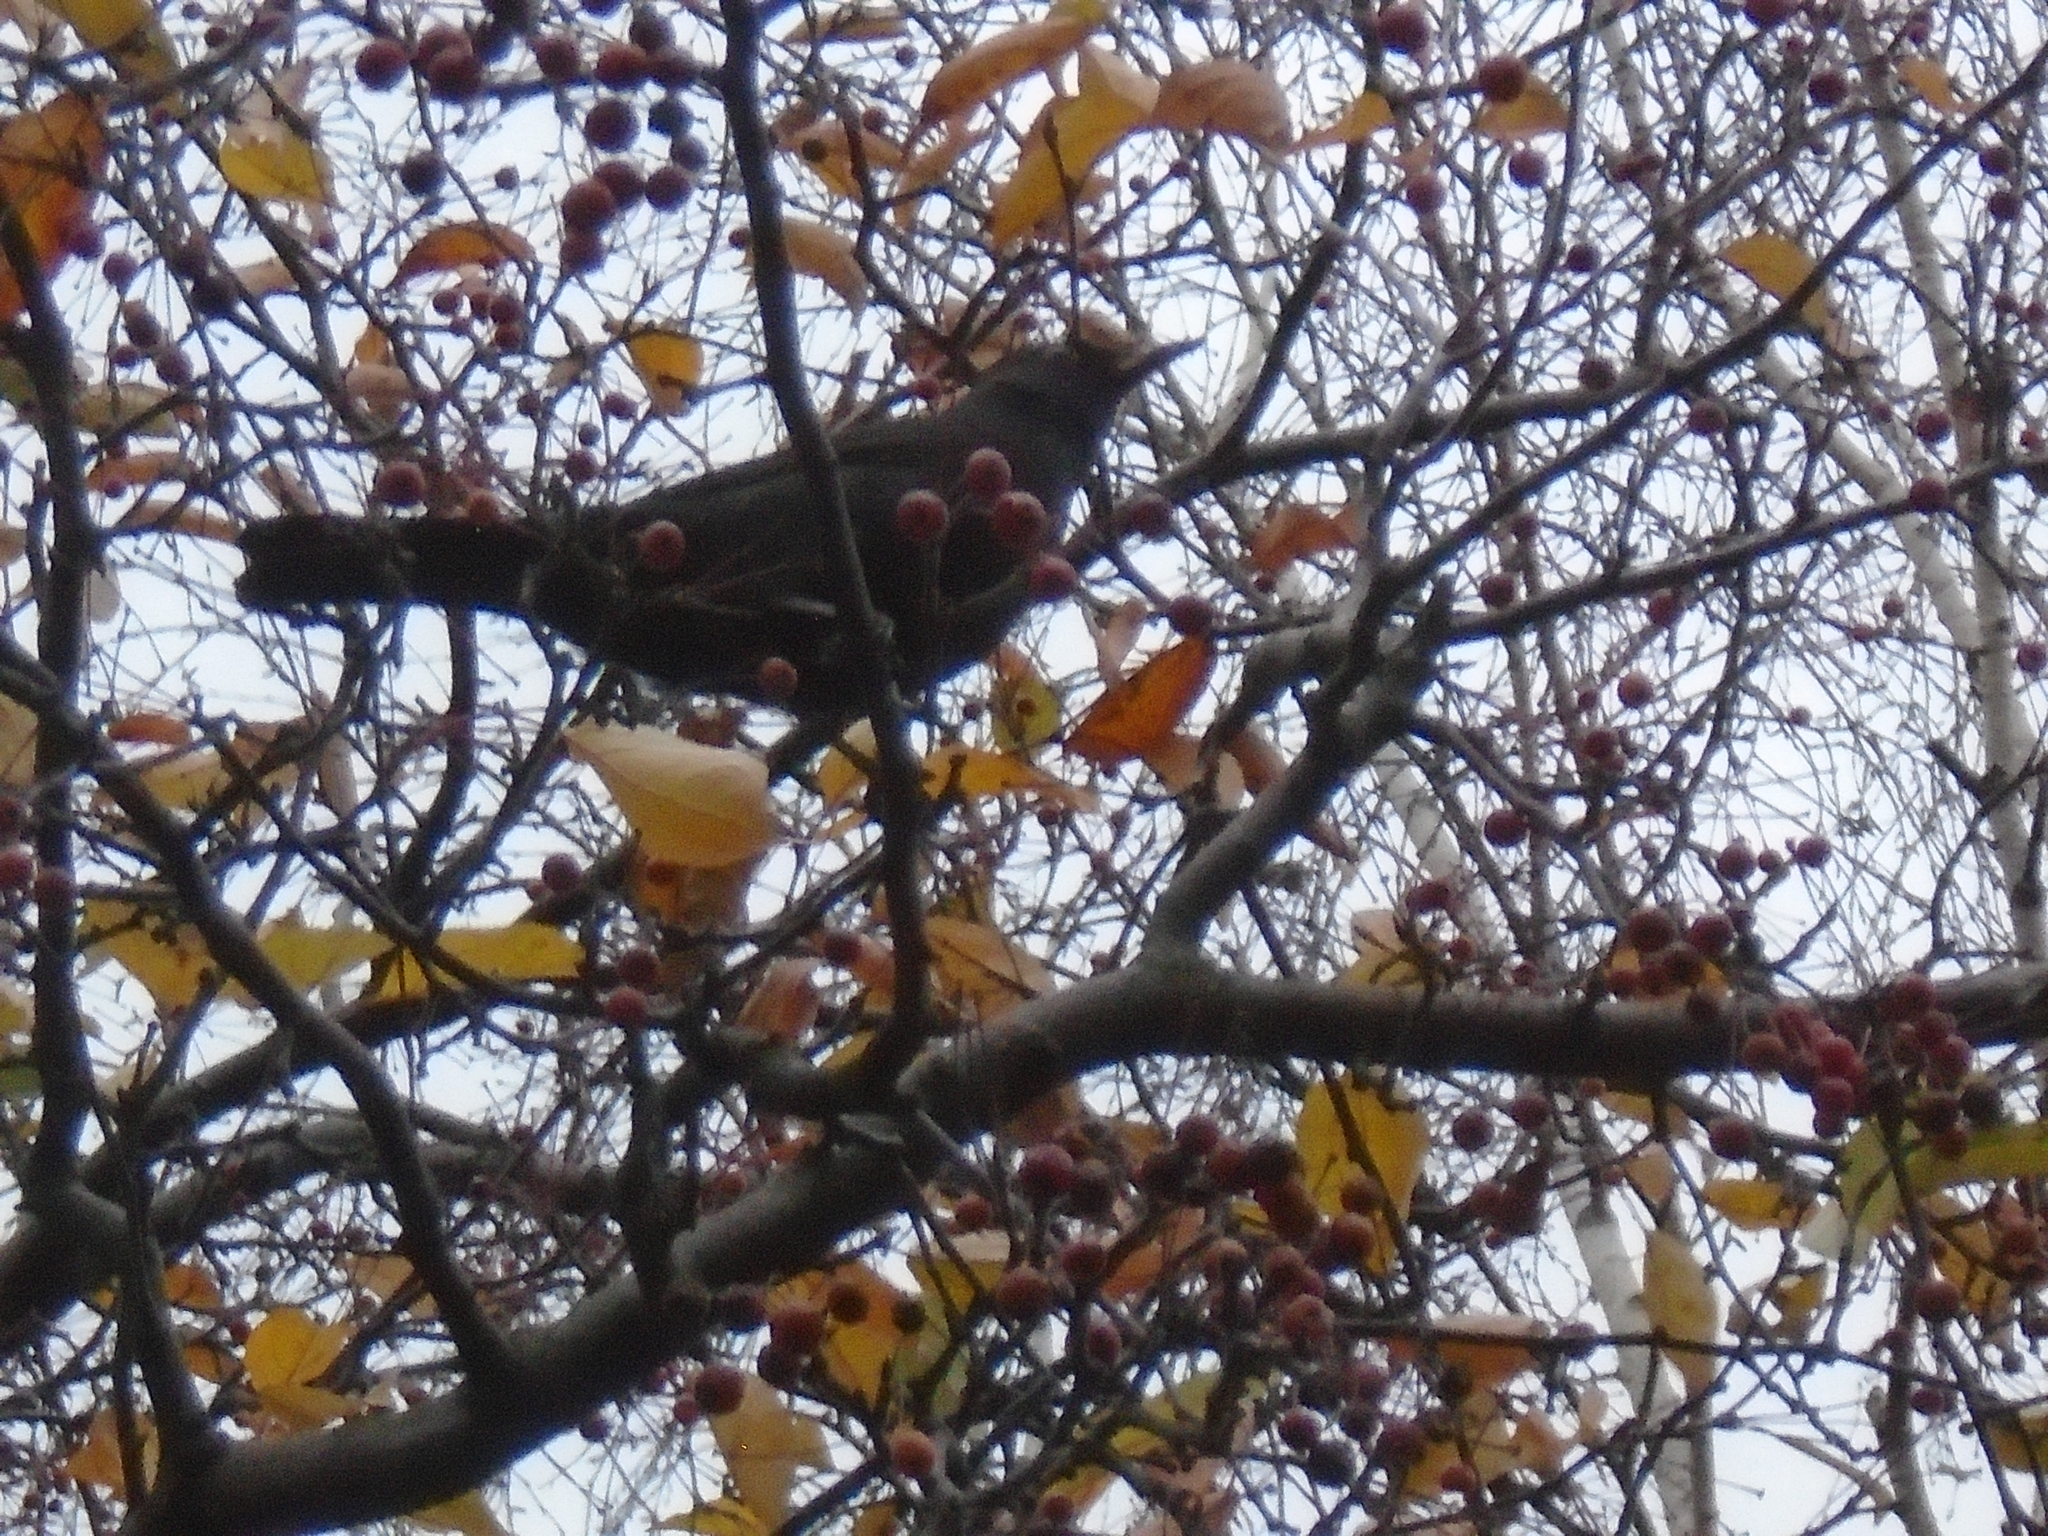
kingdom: Animalia
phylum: Chordata
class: Aves
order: Passeriformes
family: Turdidae
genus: Turdus
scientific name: Turdus merula
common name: Common blackbird
